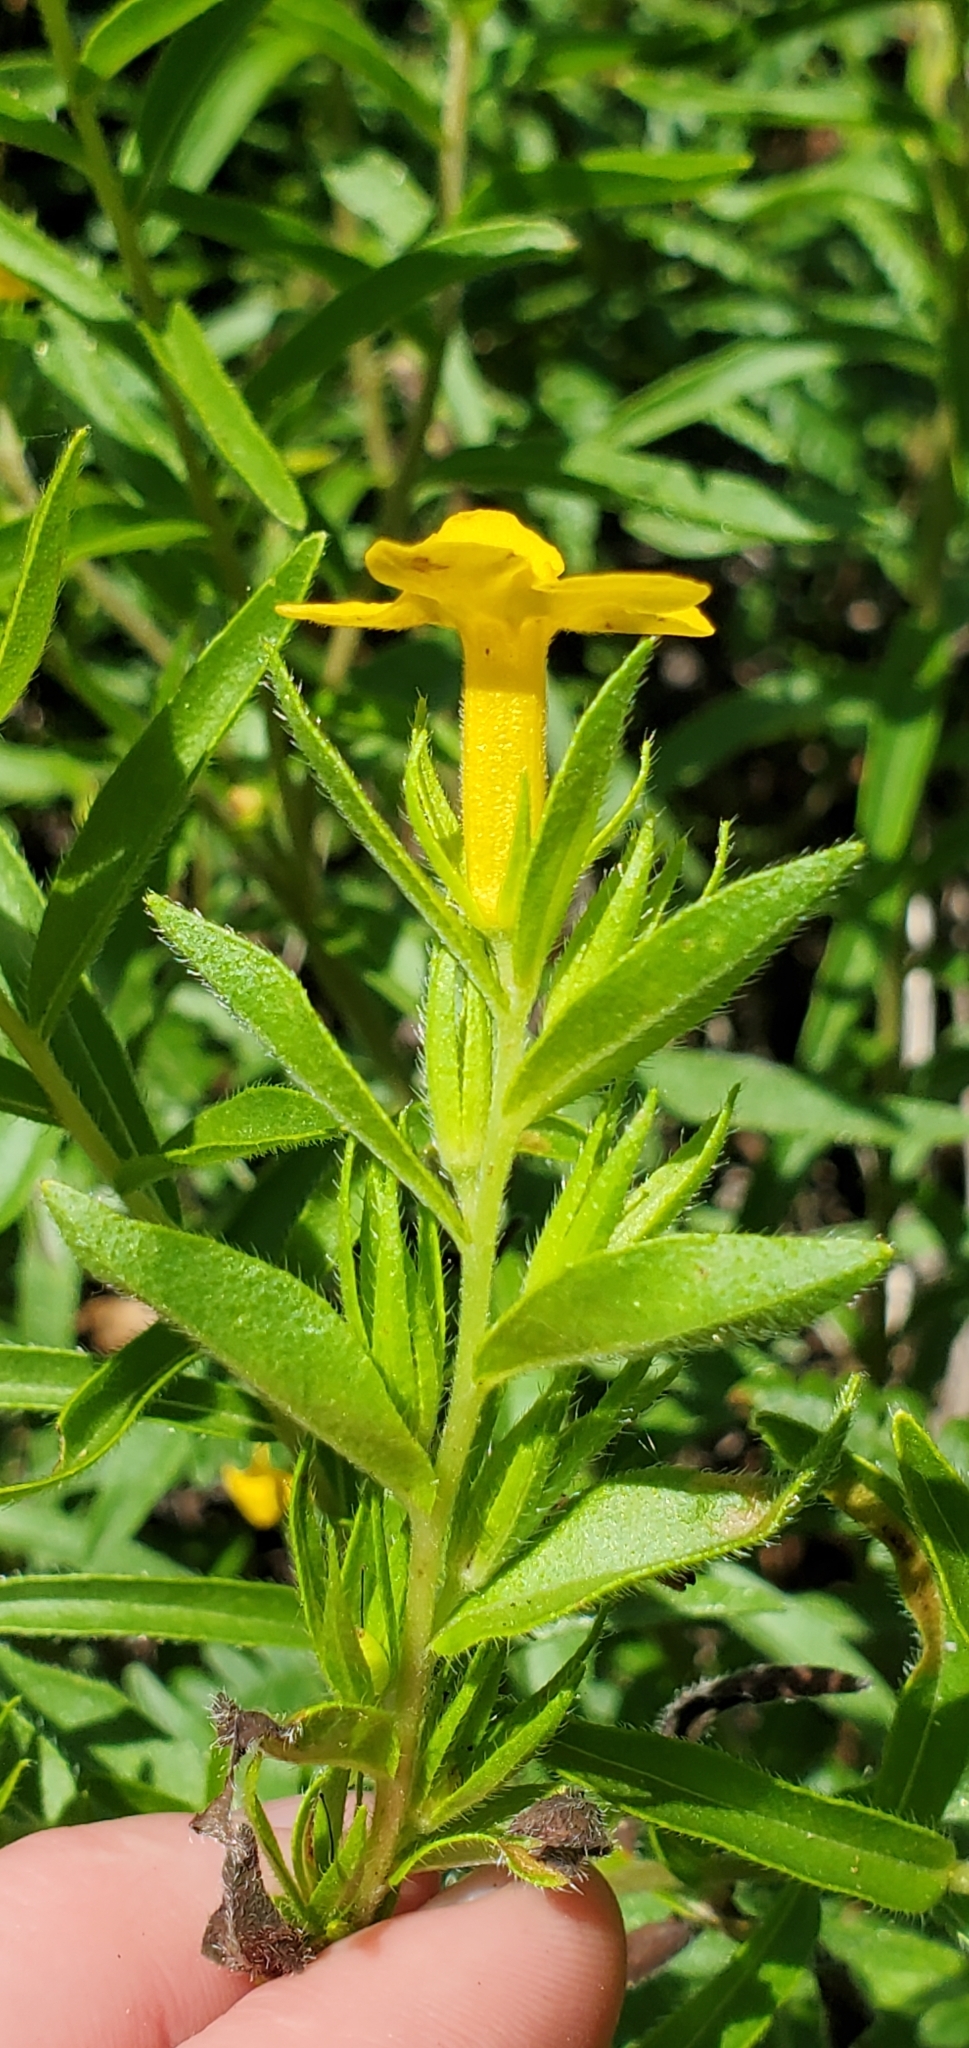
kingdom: Plantae
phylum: Tracheophyta
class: Magnoliopsida
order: Boraginales
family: Boraginaceae
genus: Lithospermum
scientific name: Lithospermum caroliniense
